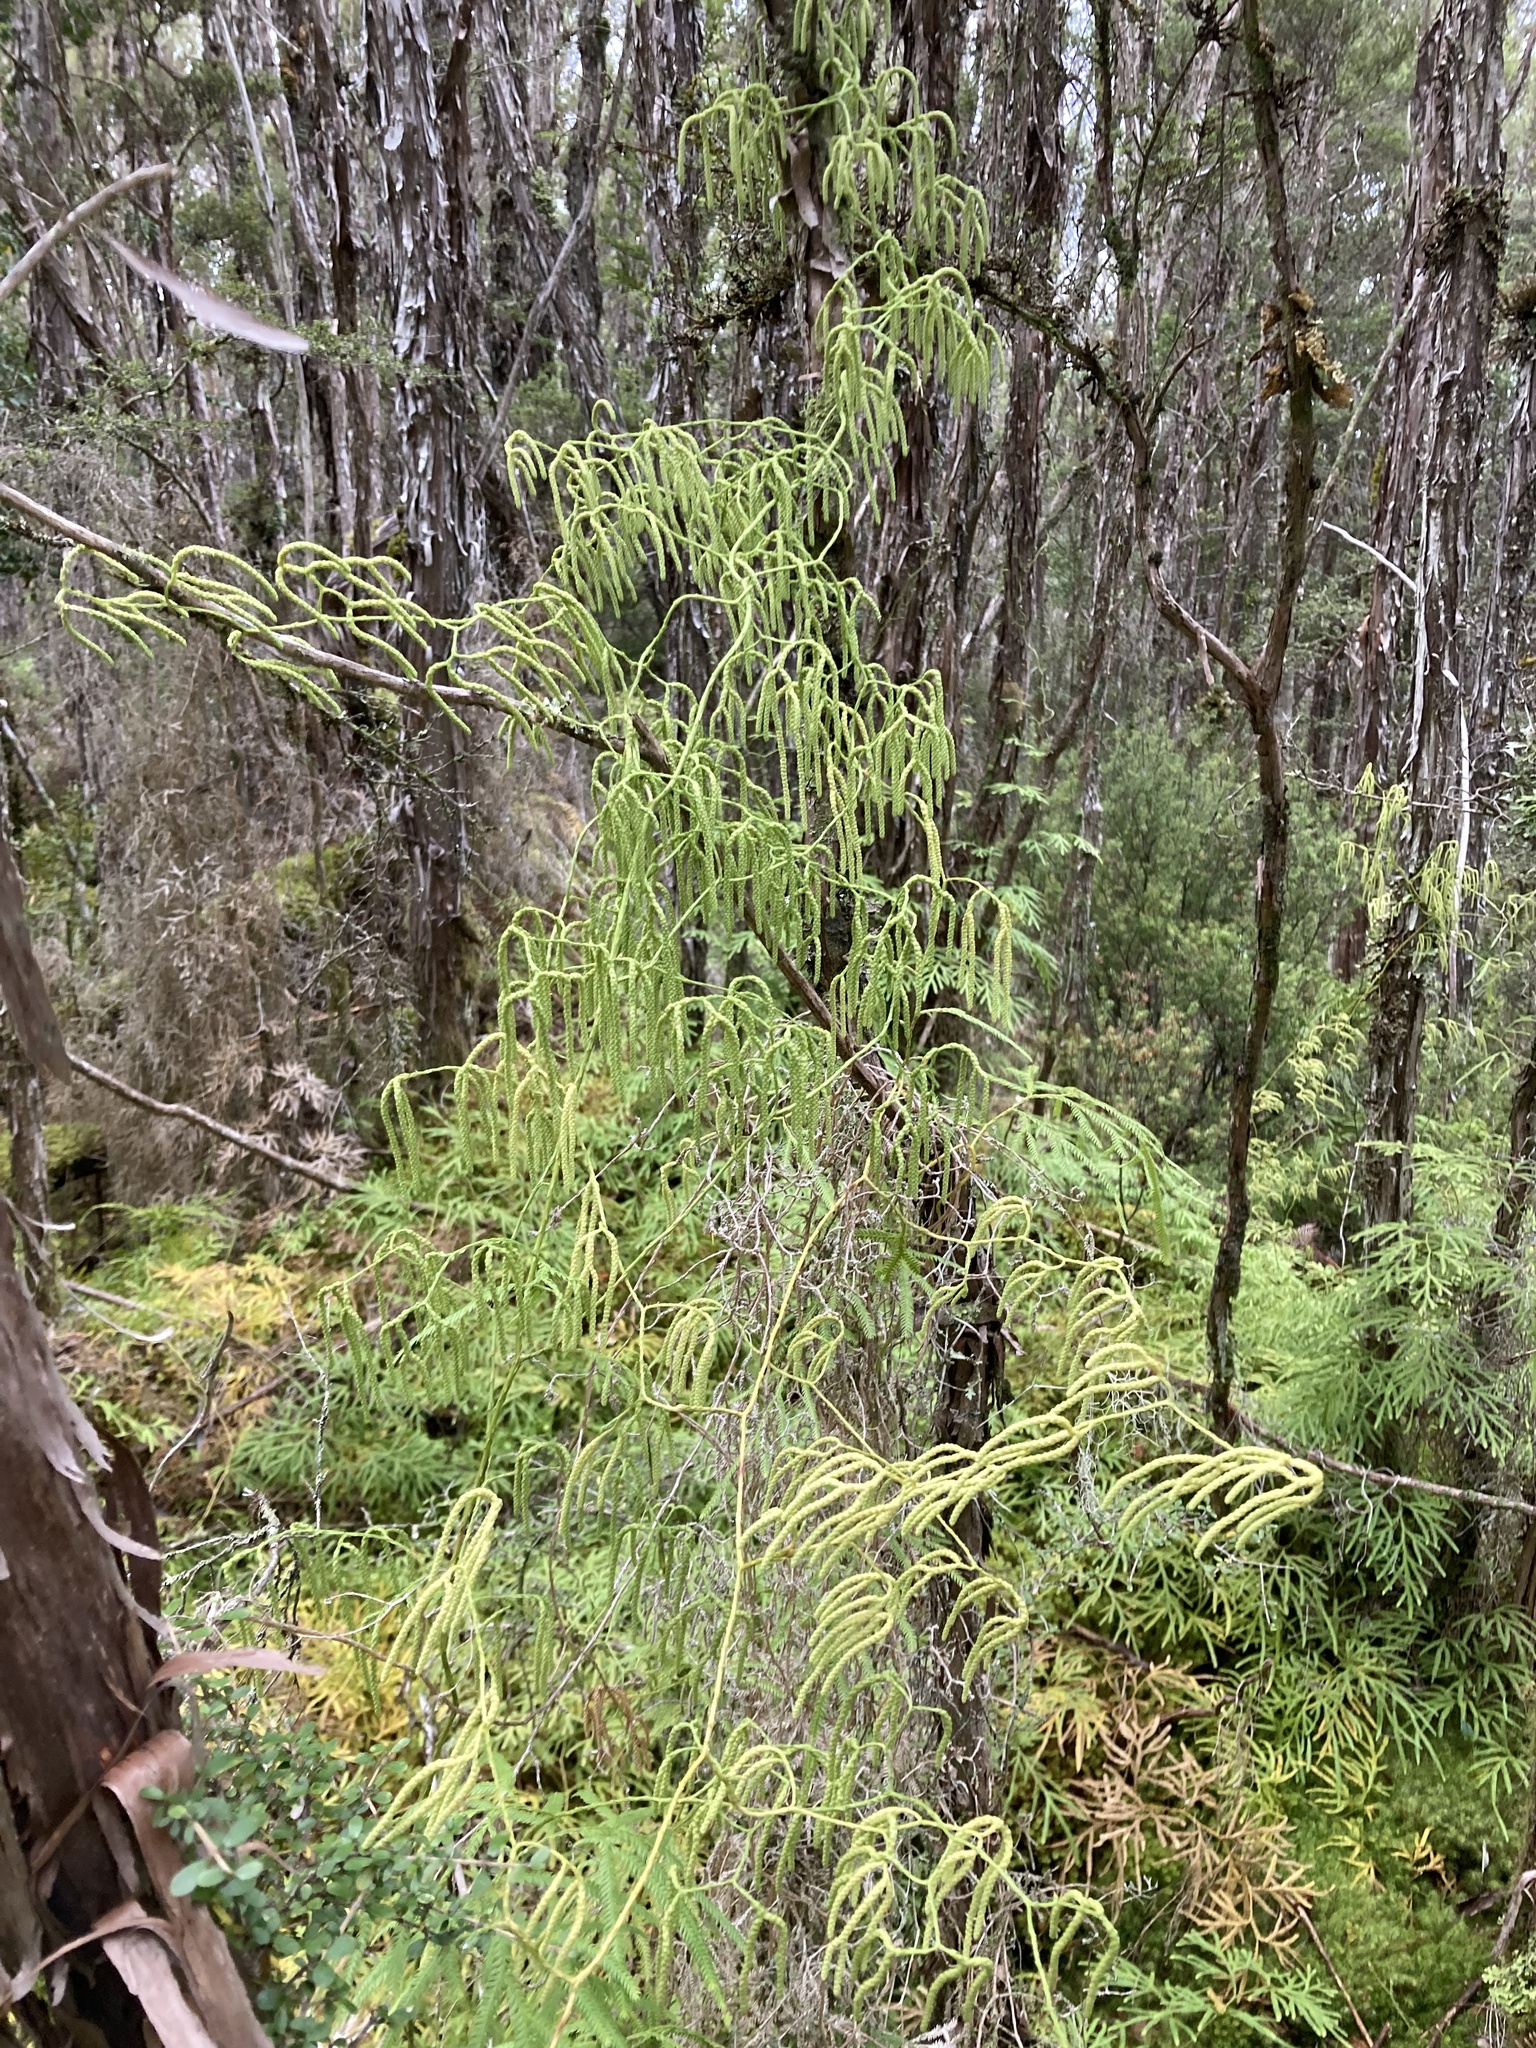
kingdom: Plantae
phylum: Tracheophyta
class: Lycopodiopsida
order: Lycopodiales
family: Lycopodiaceae
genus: Lycopodium
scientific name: Lycopodium volubile
